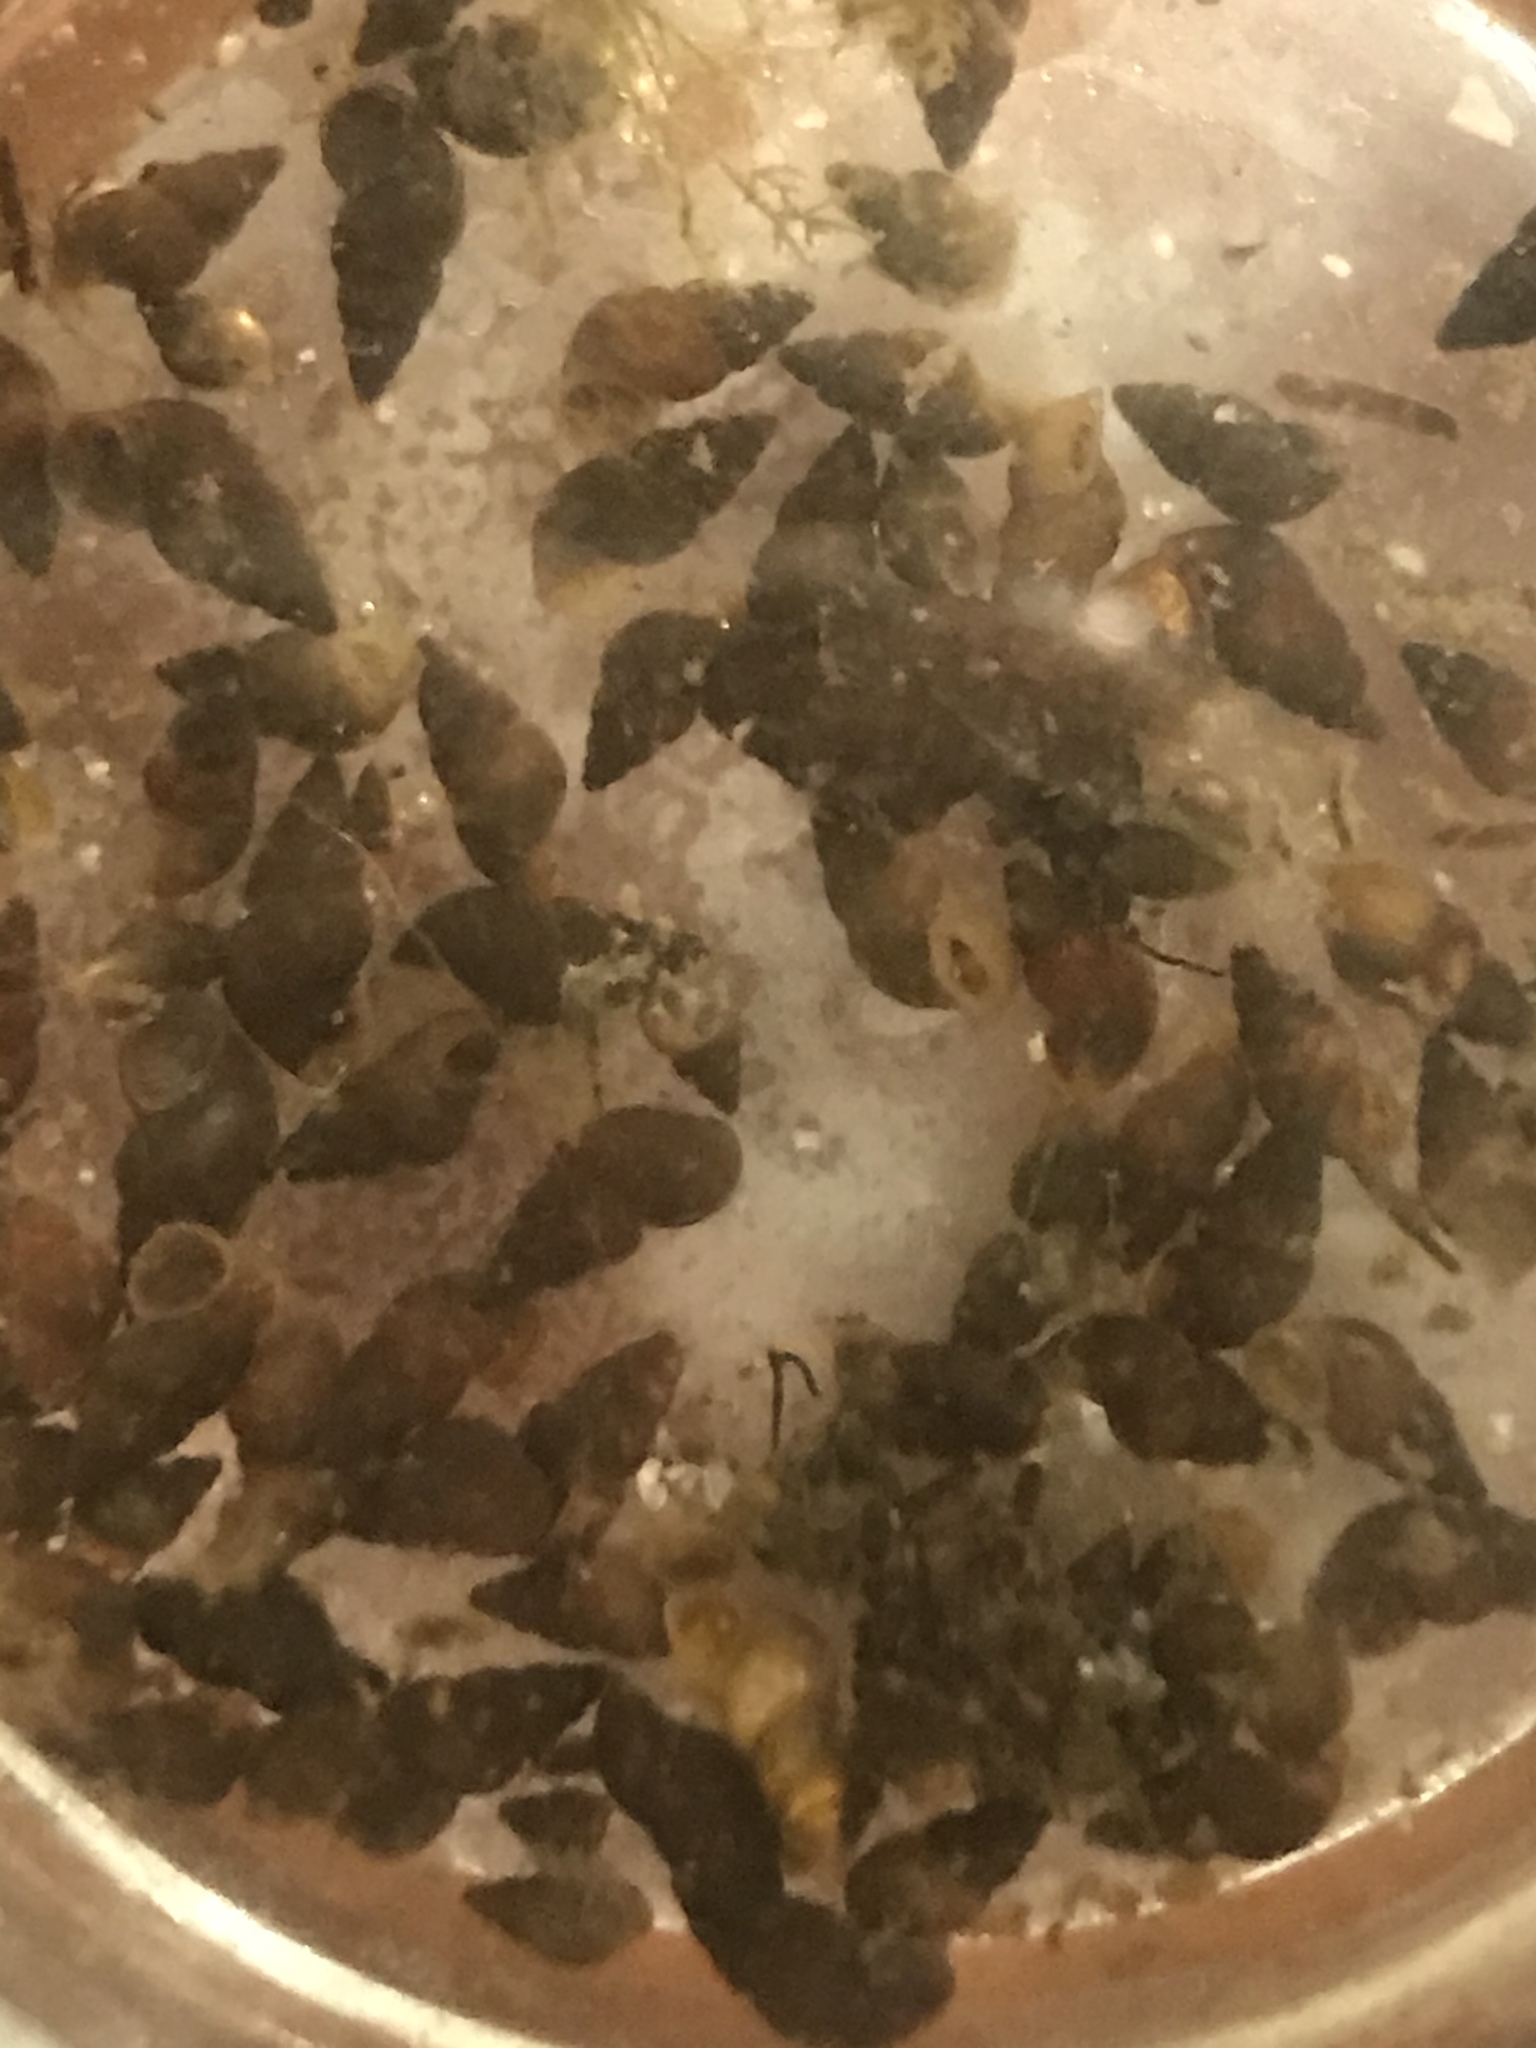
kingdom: Animalia
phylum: Mollusca
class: Gastropoda
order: Littorinimorpha
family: Tateidae
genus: Potamopyrgus
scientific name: Potamopyrgus antipodarum
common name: Jenkins' spire snail
